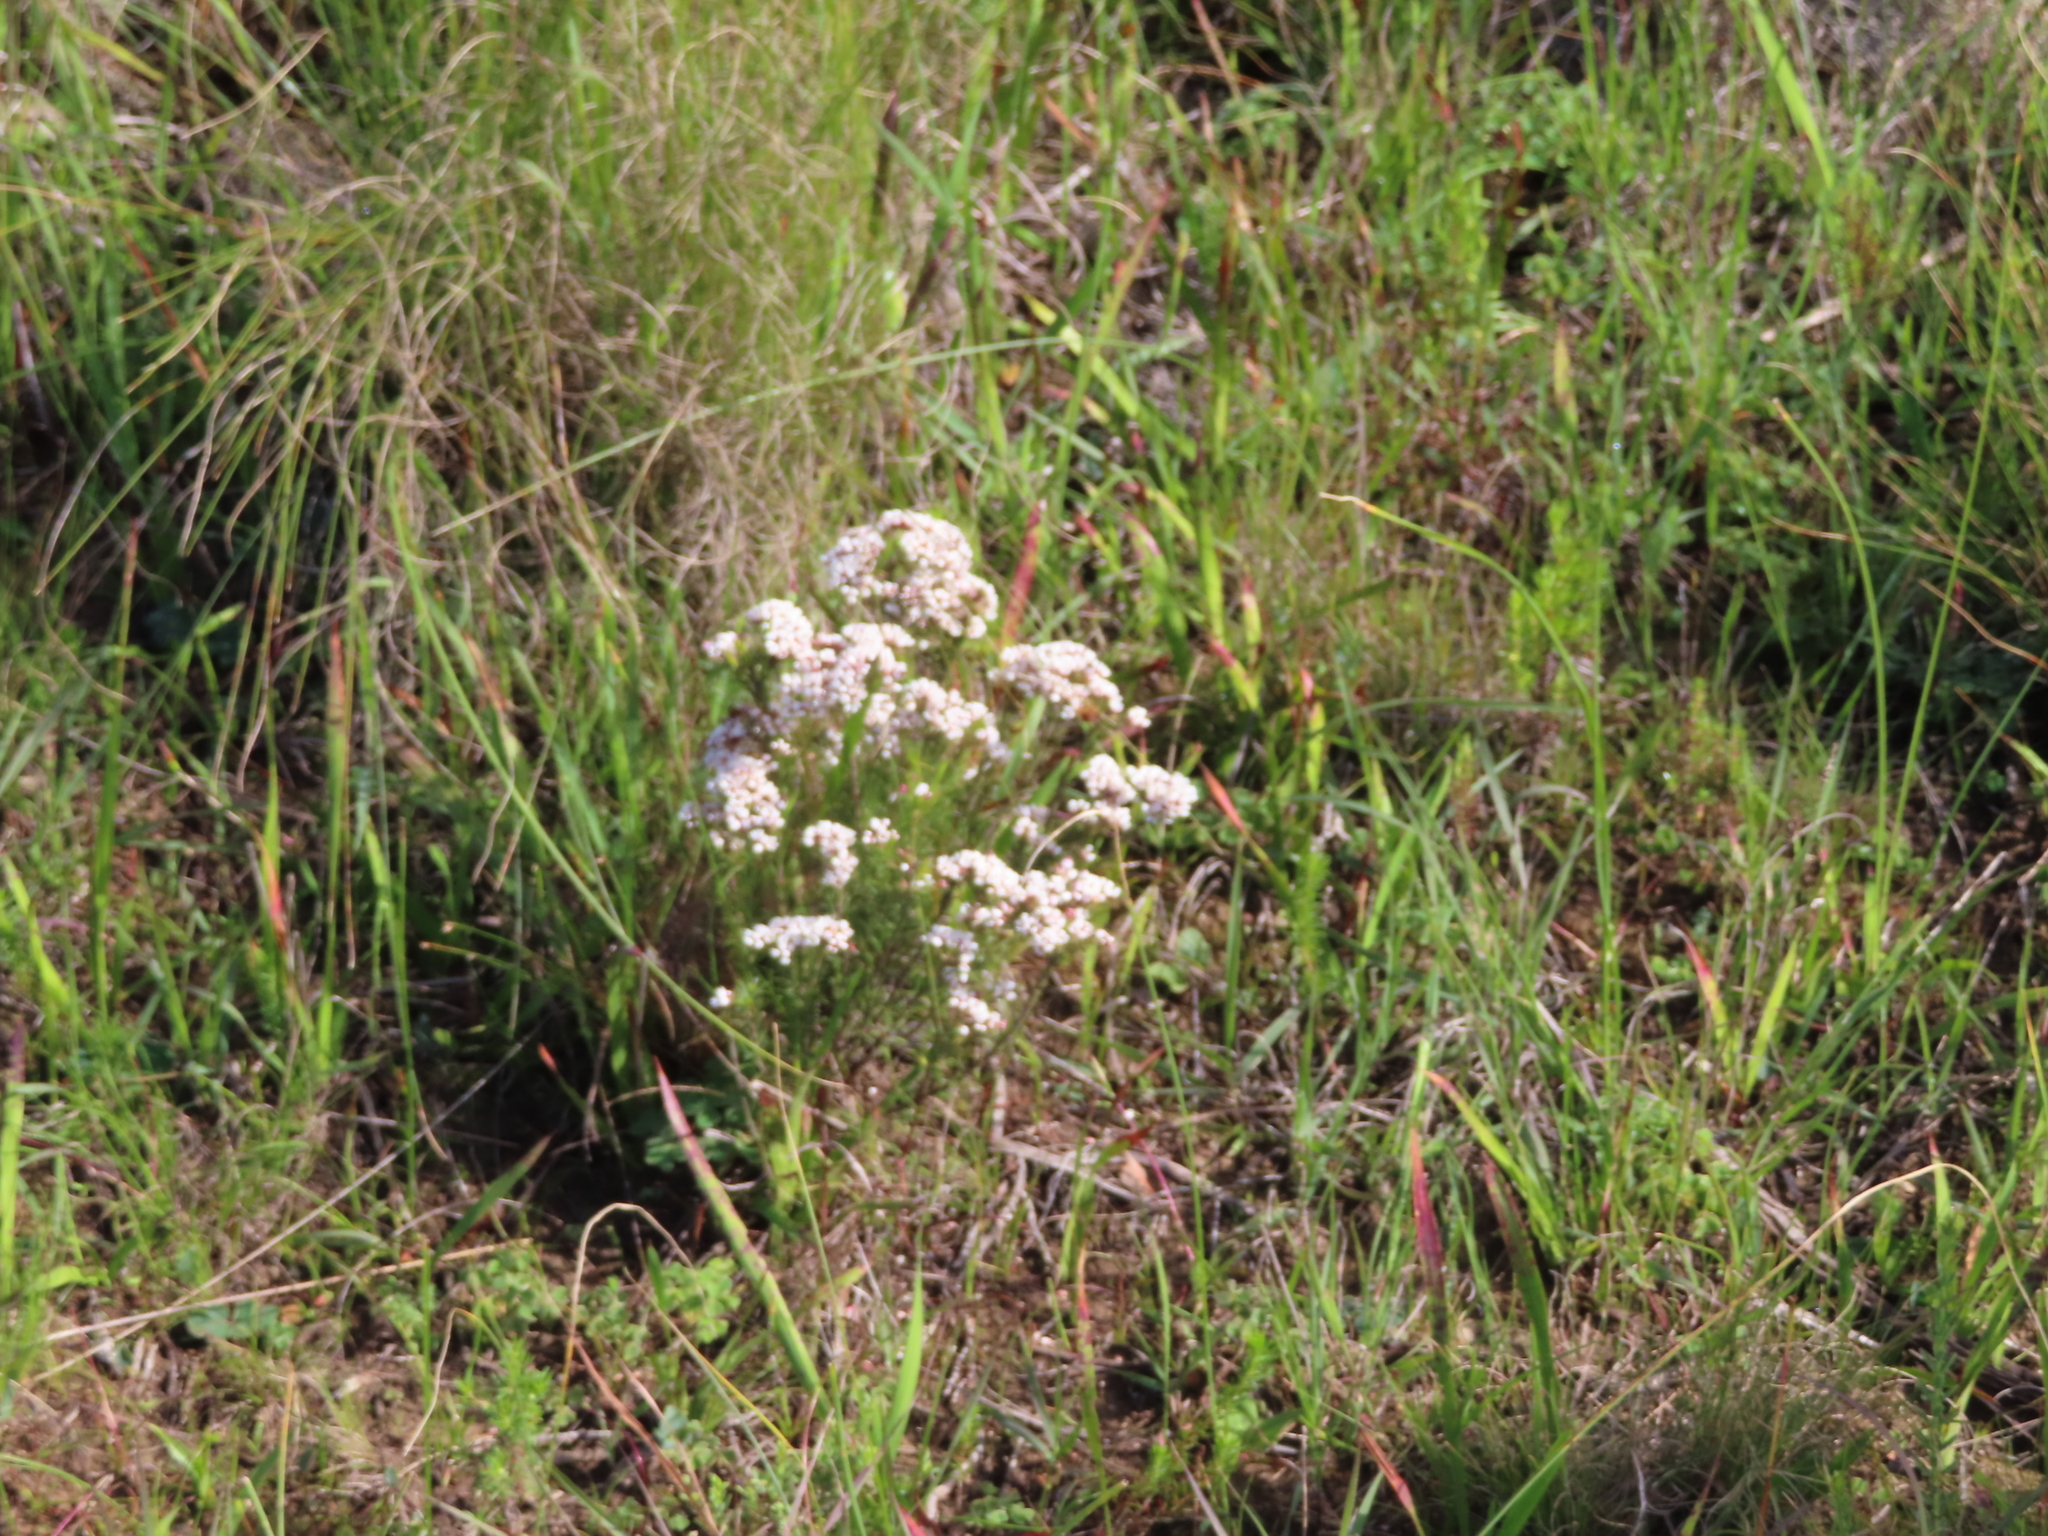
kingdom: Plantae
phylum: Tracheophyta
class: Magnoliopsida
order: Sapindales
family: Rutaceae
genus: Diosma
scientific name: Diosma hirsuta
